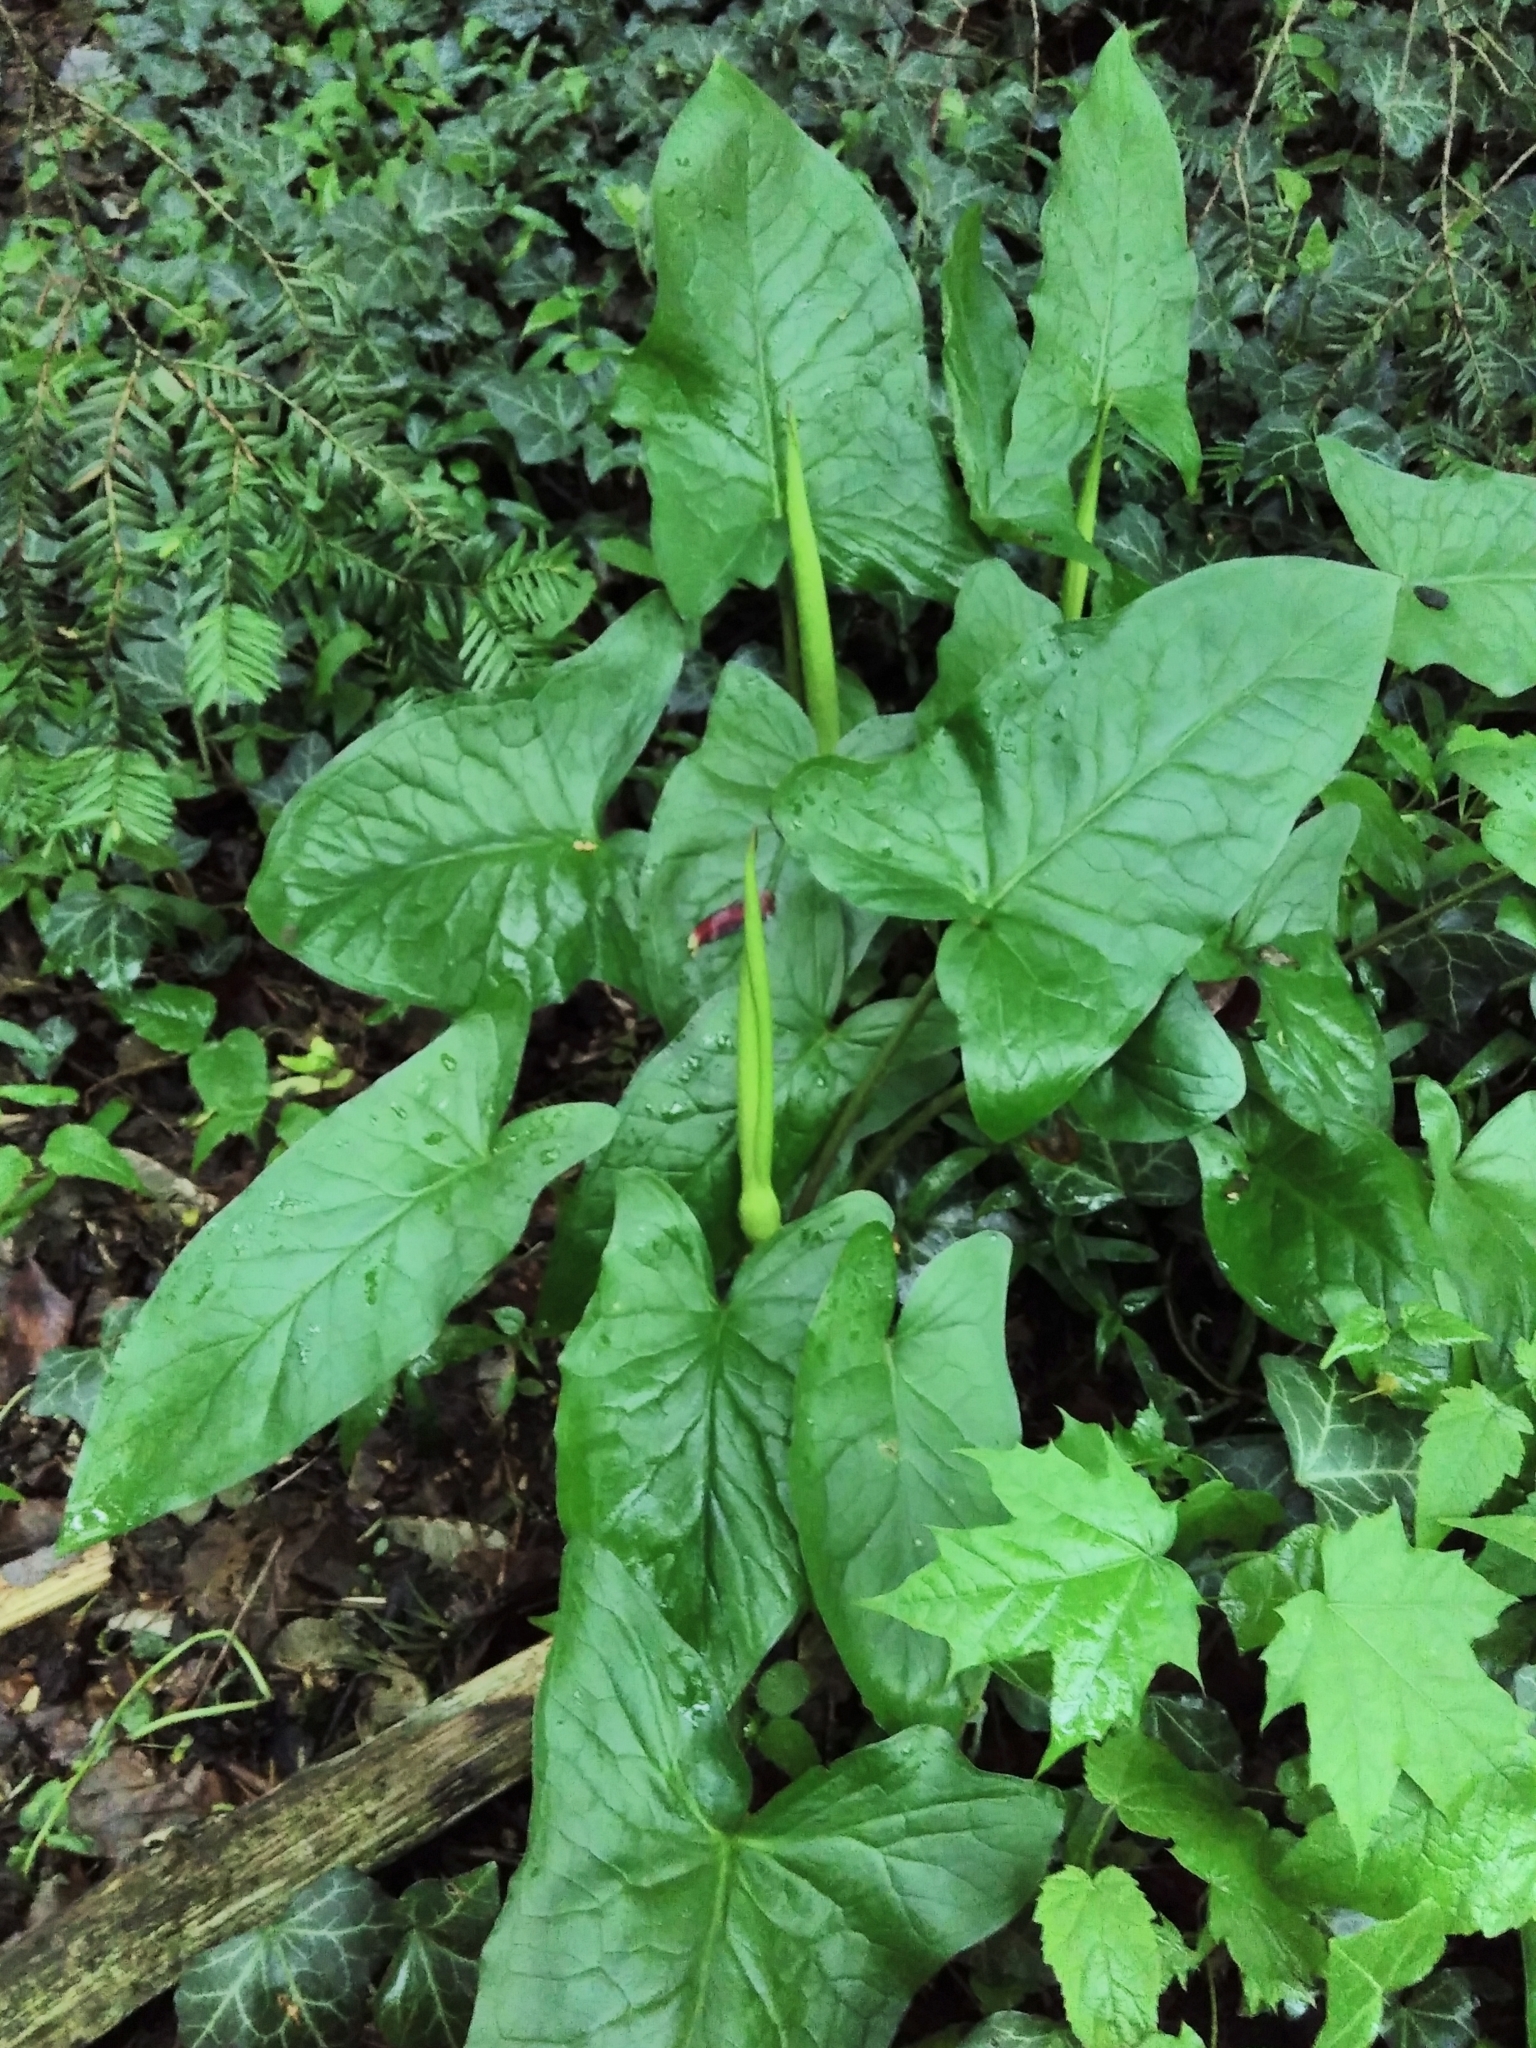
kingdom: Plantae
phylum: Tracheophyta
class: Liliopsida
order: Alismatales
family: Araceae
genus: Arum
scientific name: Arum maculatum
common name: Lords-and-ladies
